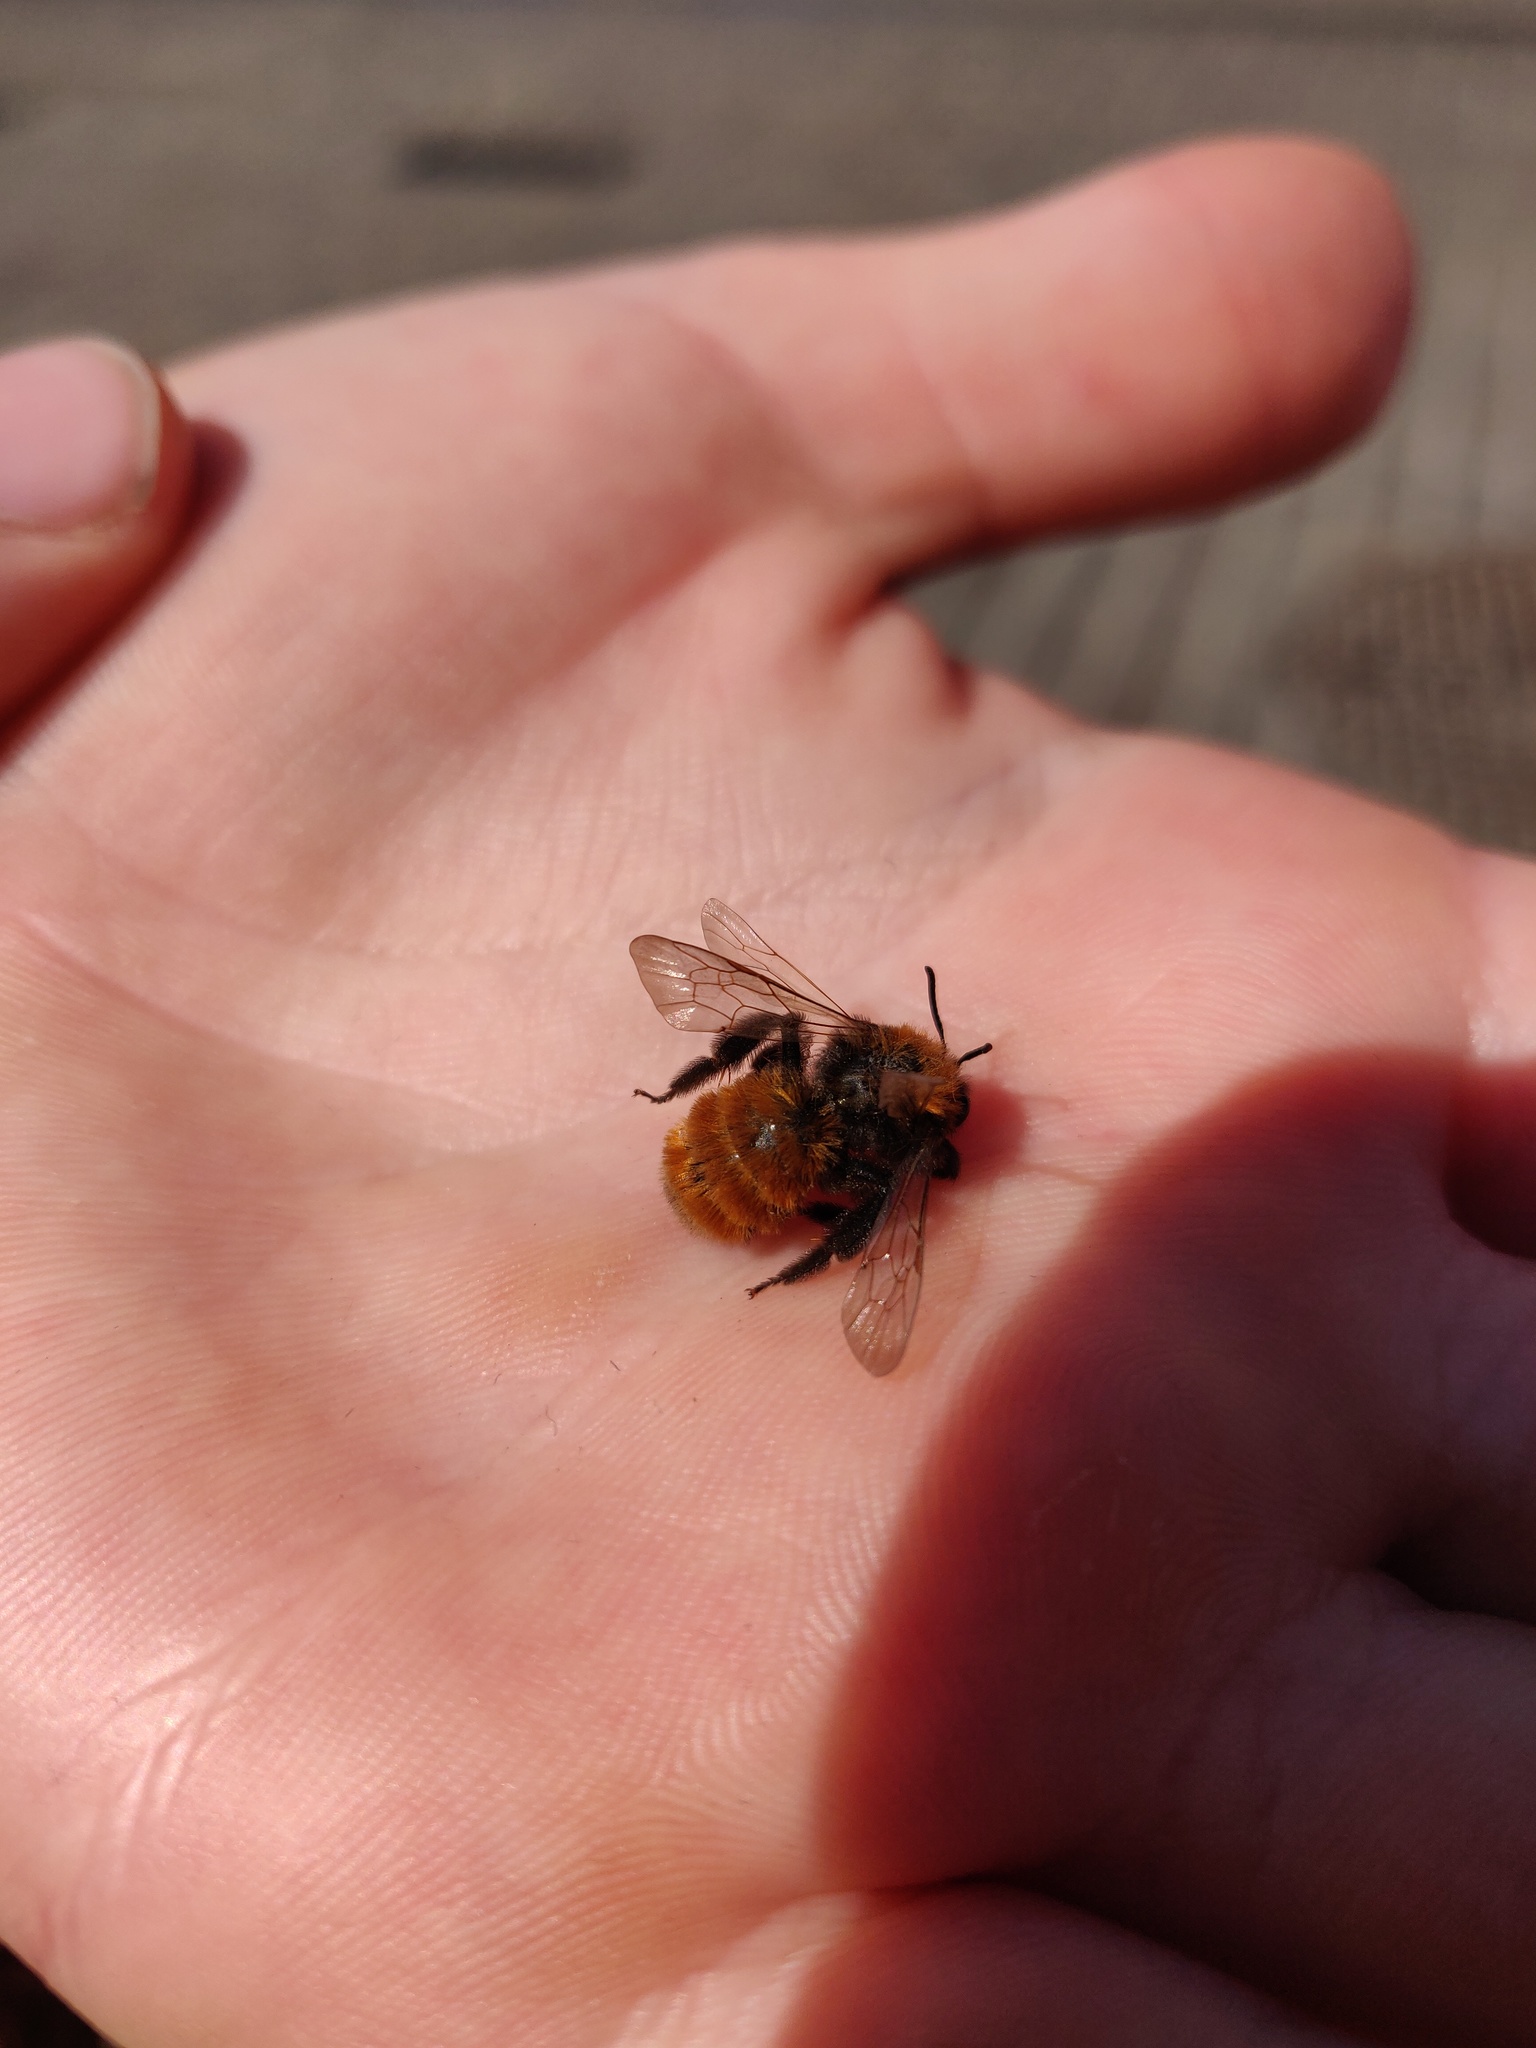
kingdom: Animalia
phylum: Arthropoda
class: Insecta
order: Hymenoptera
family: Andrenidae
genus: Andrena
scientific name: Andrena fulva
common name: Tawny mining bee
